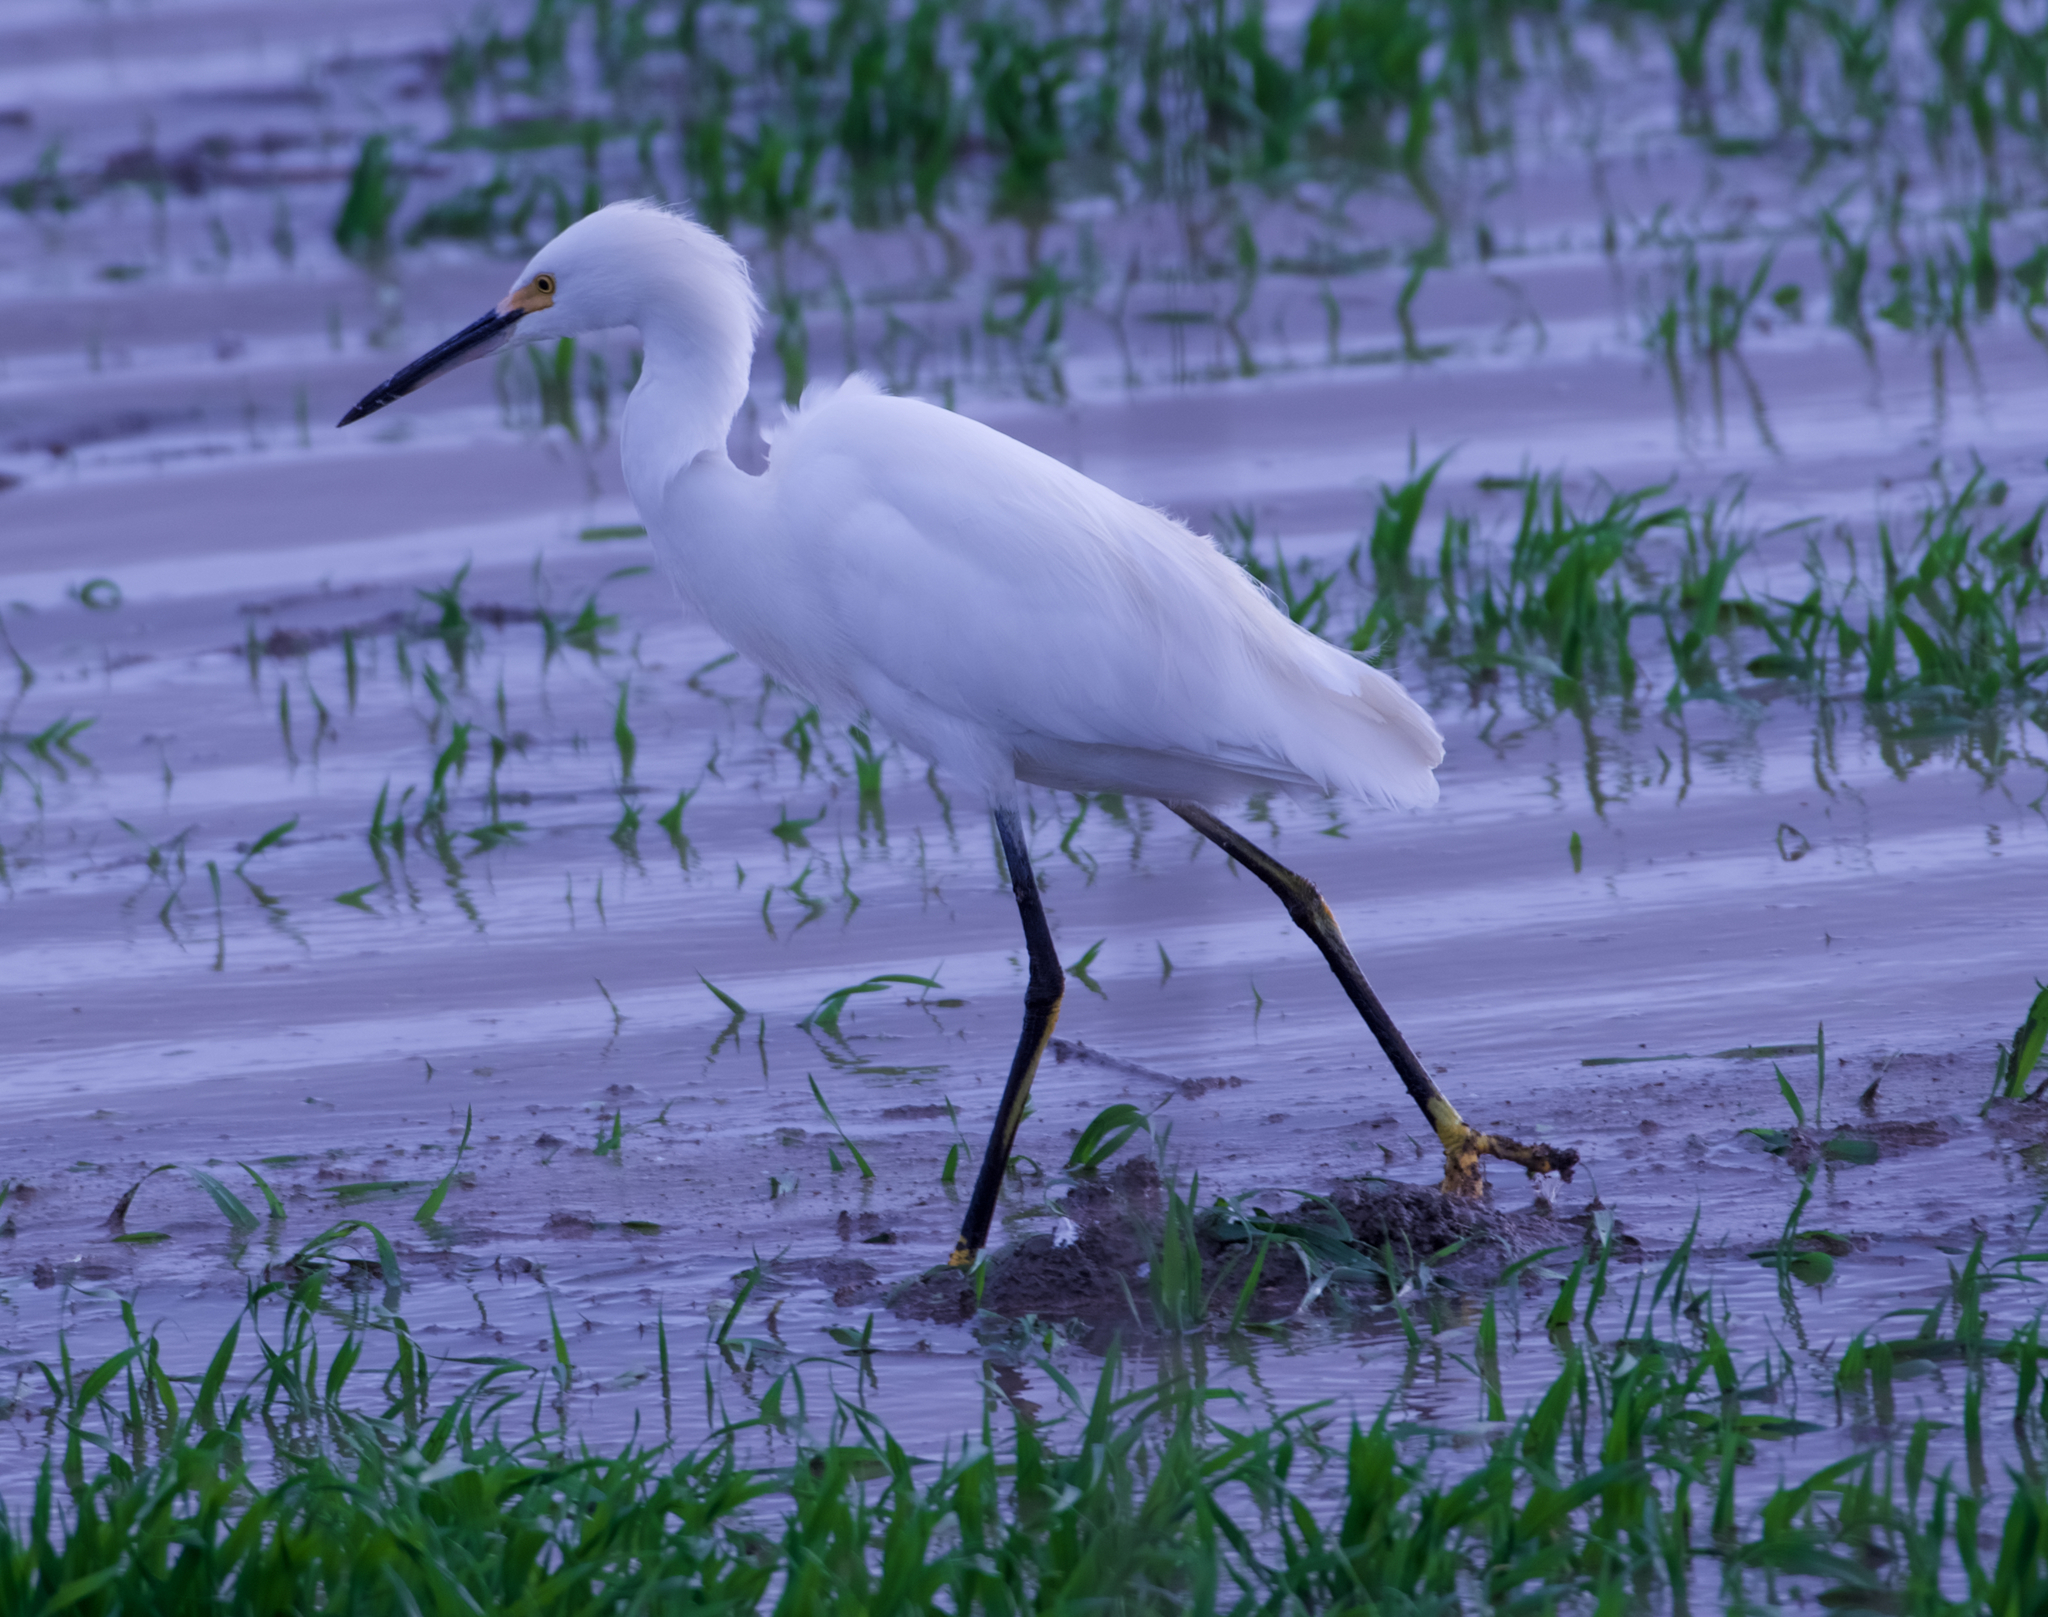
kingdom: Animalia
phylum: Chordata
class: Aves
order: Pelecaniformes
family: Ardeidae
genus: Egretta
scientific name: Egretta thula
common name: Snowy egret
